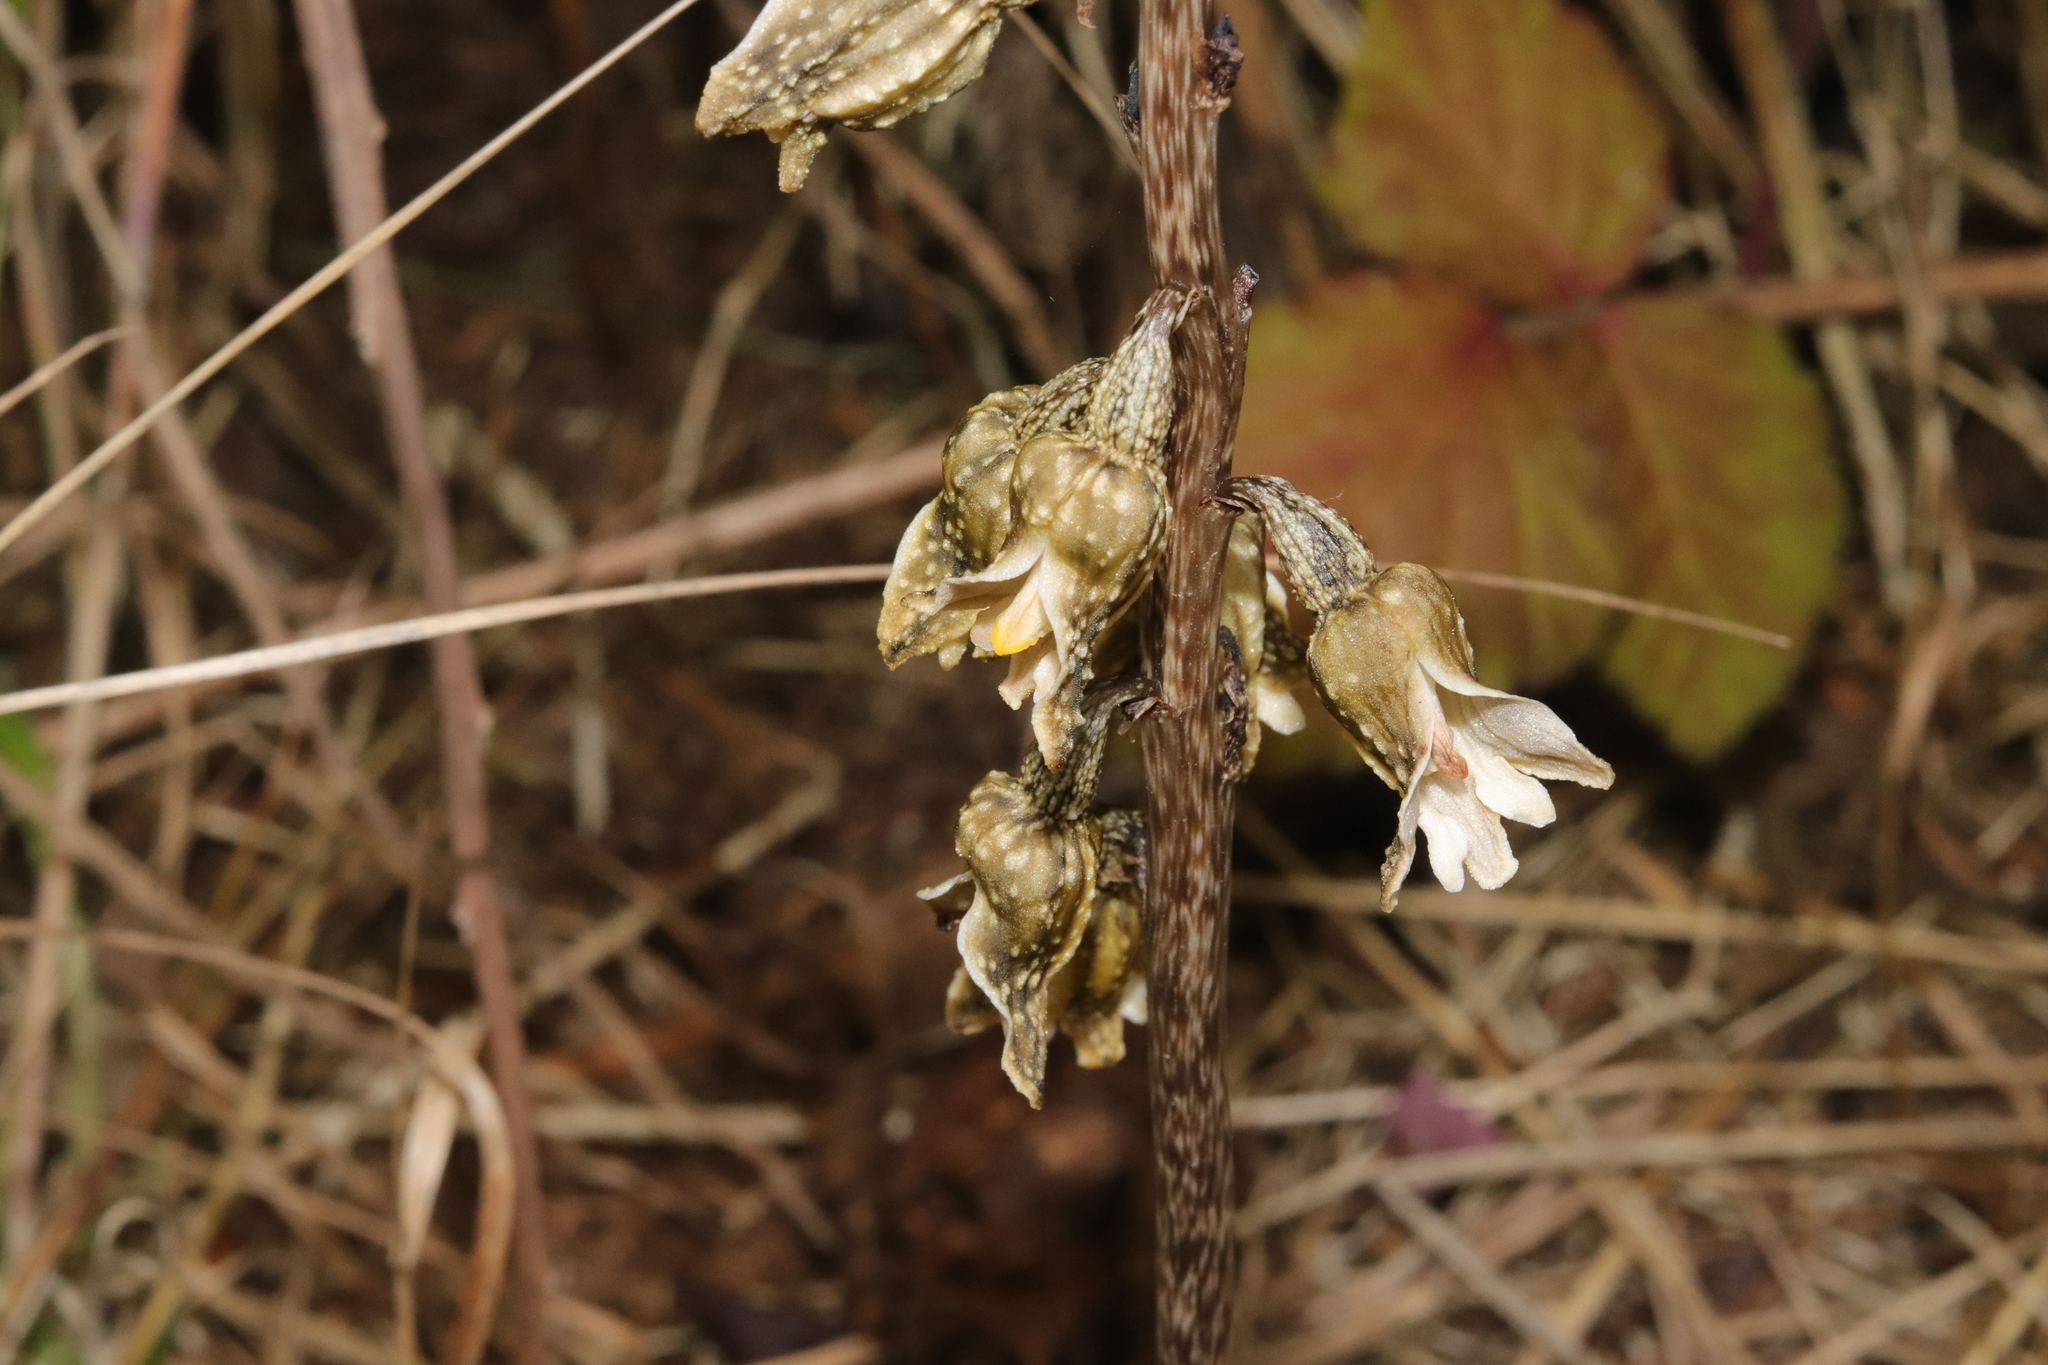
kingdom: Plantae
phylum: Tracheophyta
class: Liliopsida
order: Asparagales
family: Orchidaceae
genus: Gastrodia
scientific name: Gastrodia molloyi
